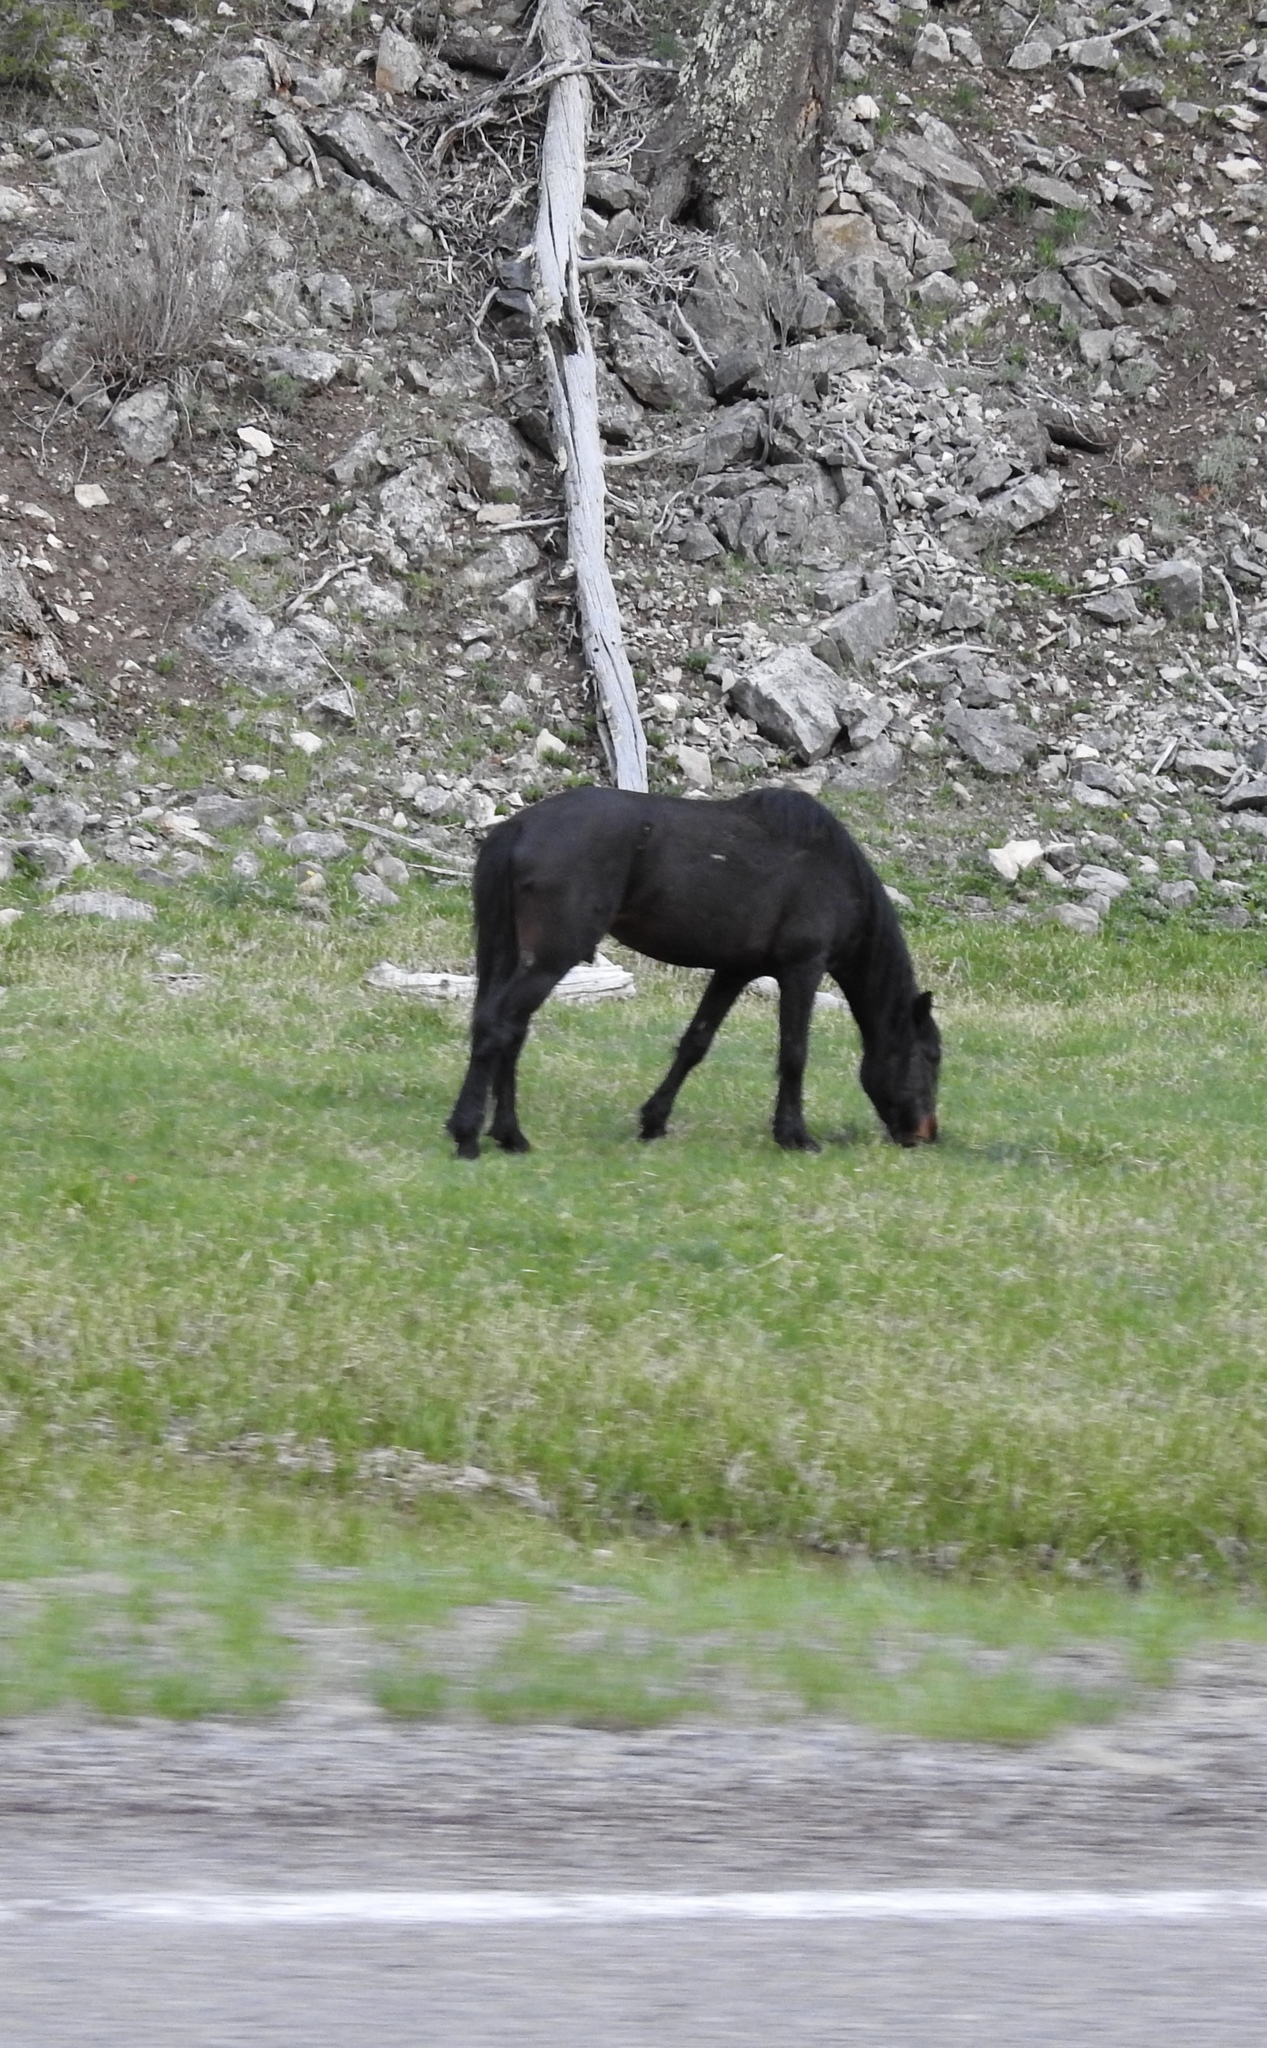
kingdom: Animalia
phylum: Chordata
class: Mammalia
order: Perissodactyla
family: Equidae
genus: Equus
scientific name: Equus caballus
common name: Horse
